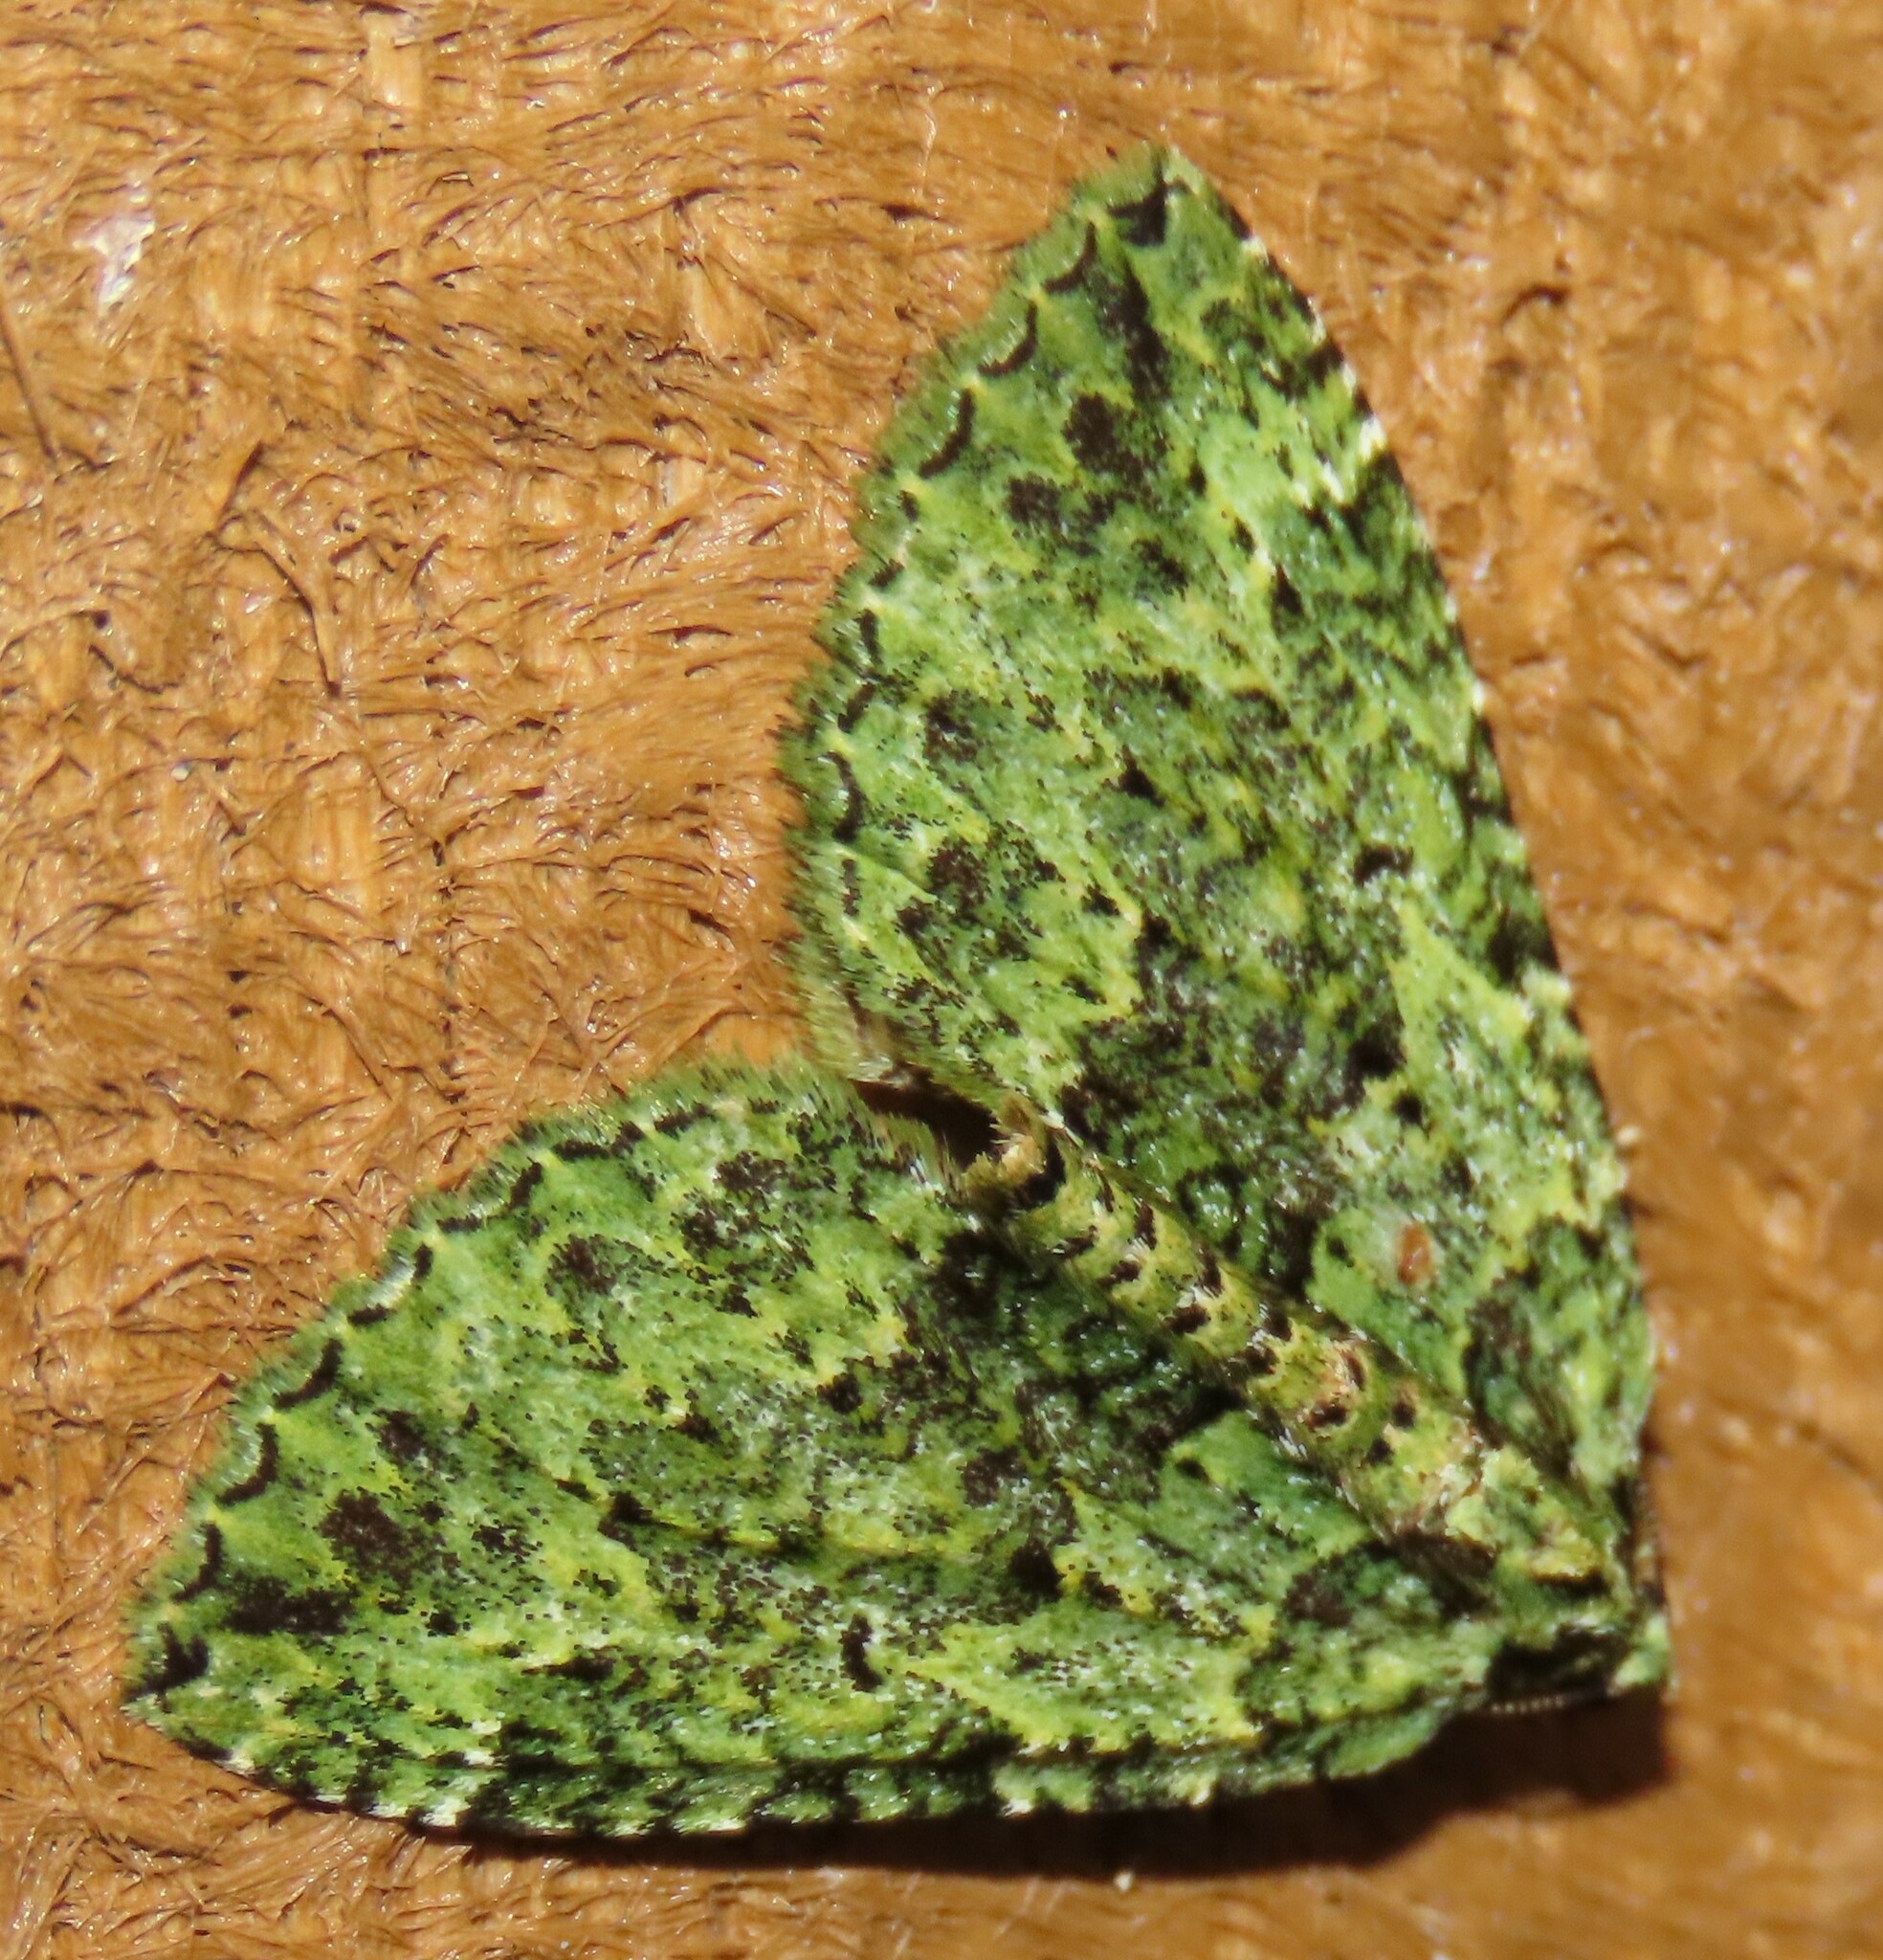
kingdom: Animalia
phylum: Arthropoda
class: Insecta
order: Lepidoptera
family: Geometridae
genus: Austrocidaria
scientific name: Austrocidaria callichlora
